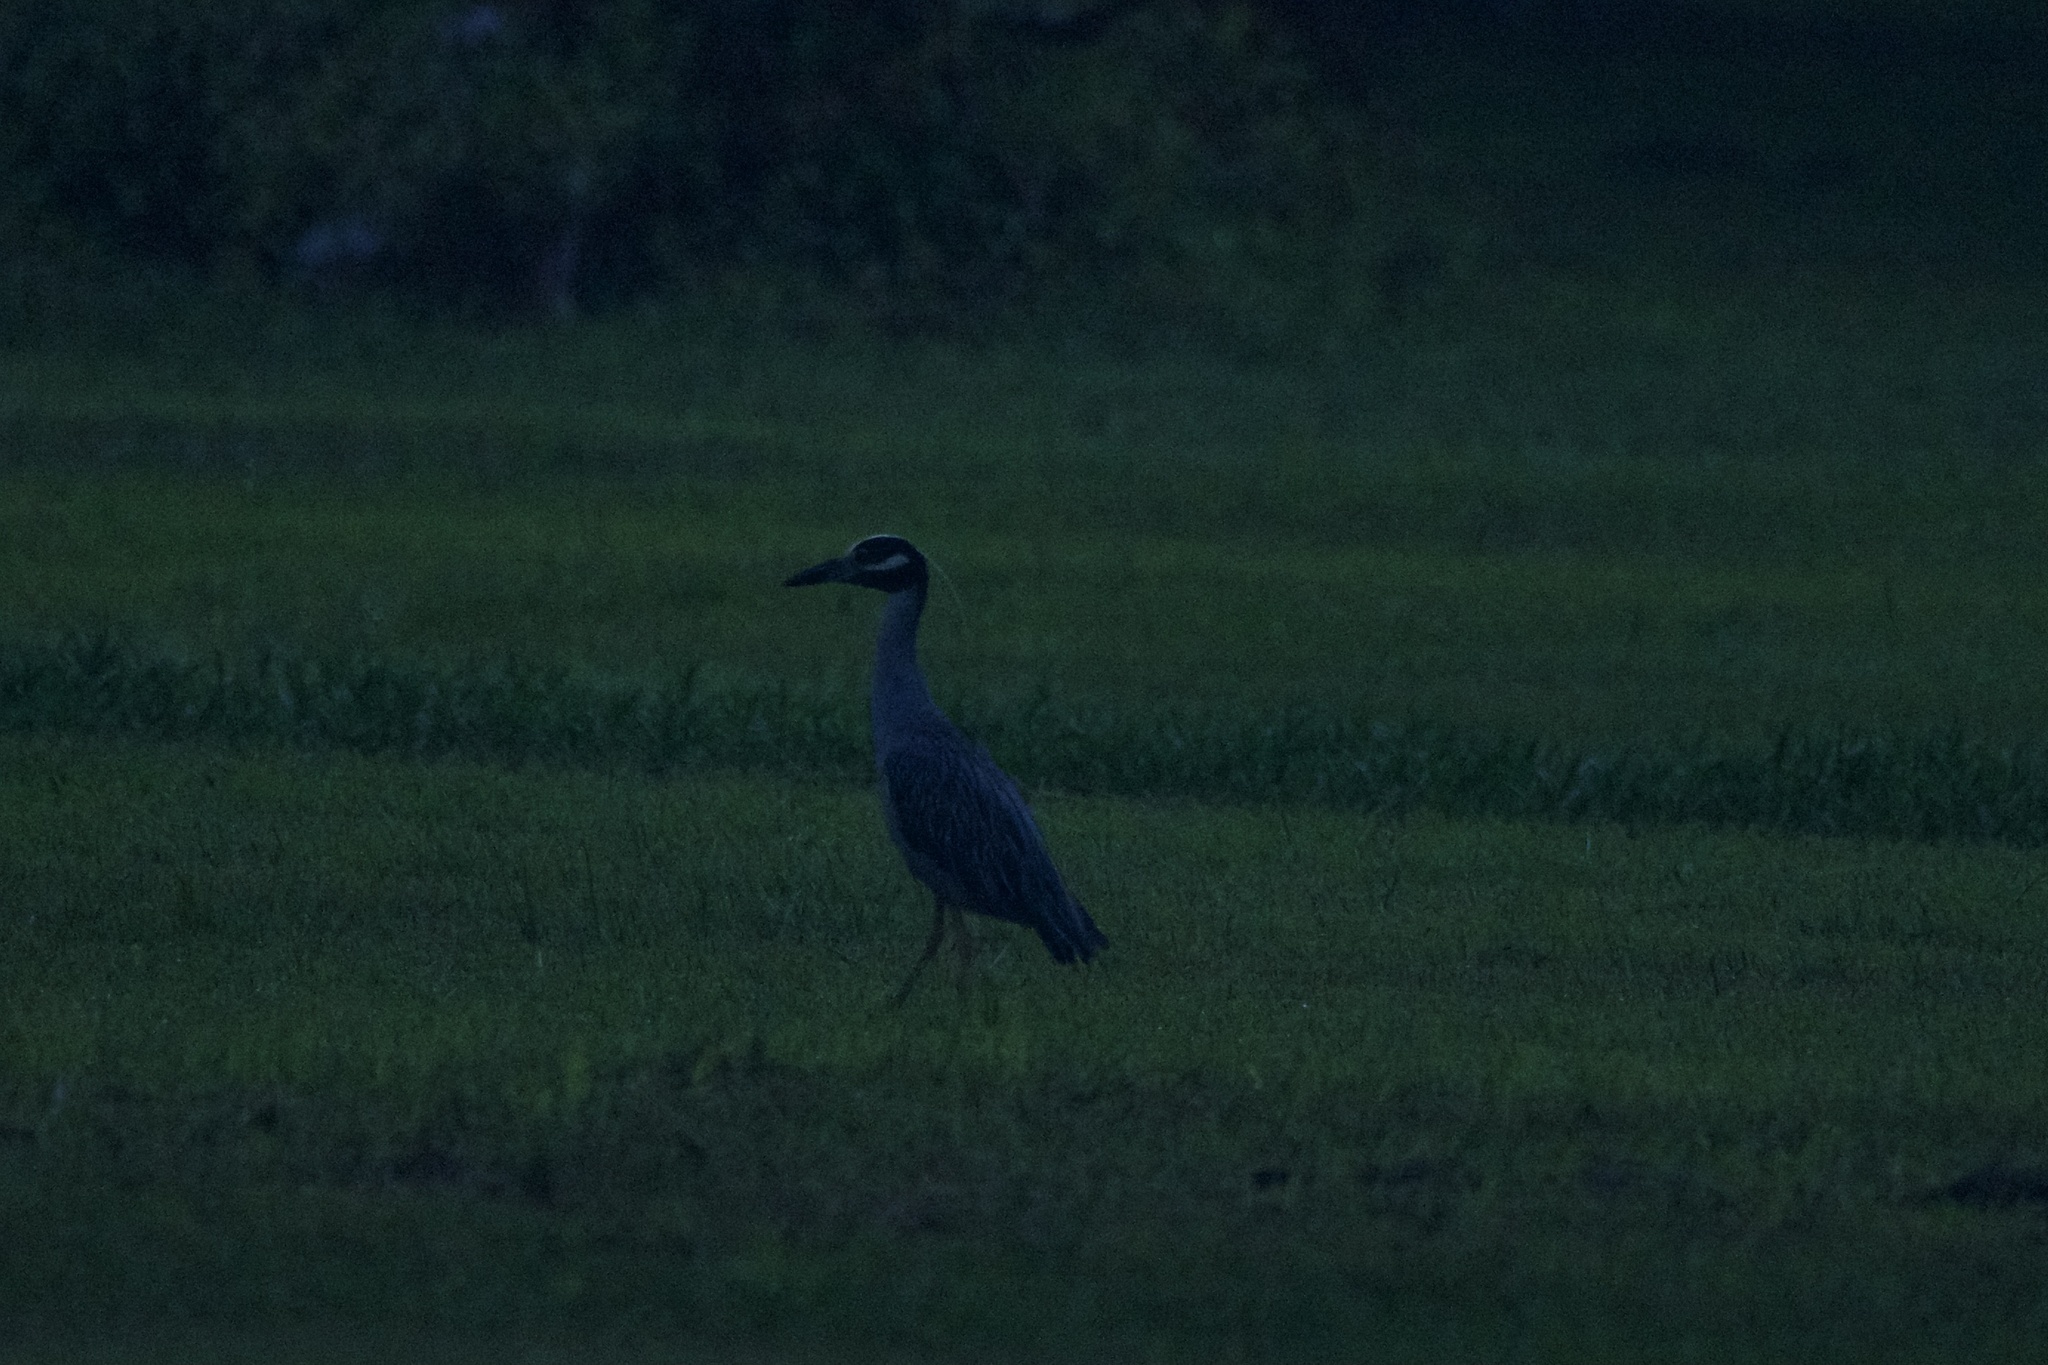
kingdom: Animalia
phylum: Chordata
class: Aves
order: Pelecaniformes
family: Ardeidae
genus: Nyctanassa
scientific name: Nyctanassa violacea
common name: Yellow-crowned night heron
